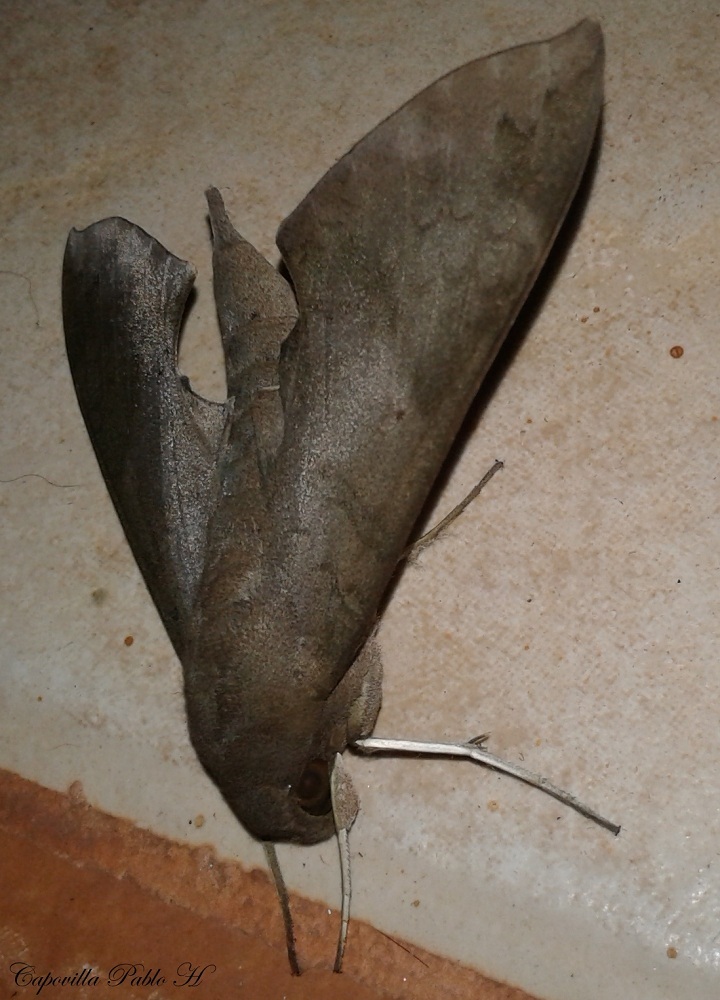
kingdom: Animalia
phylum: Arthropoda
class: Insecta
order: Lepidoptera
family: Sphingidae
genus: Pachylioides
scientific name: Pachylioides resumens
